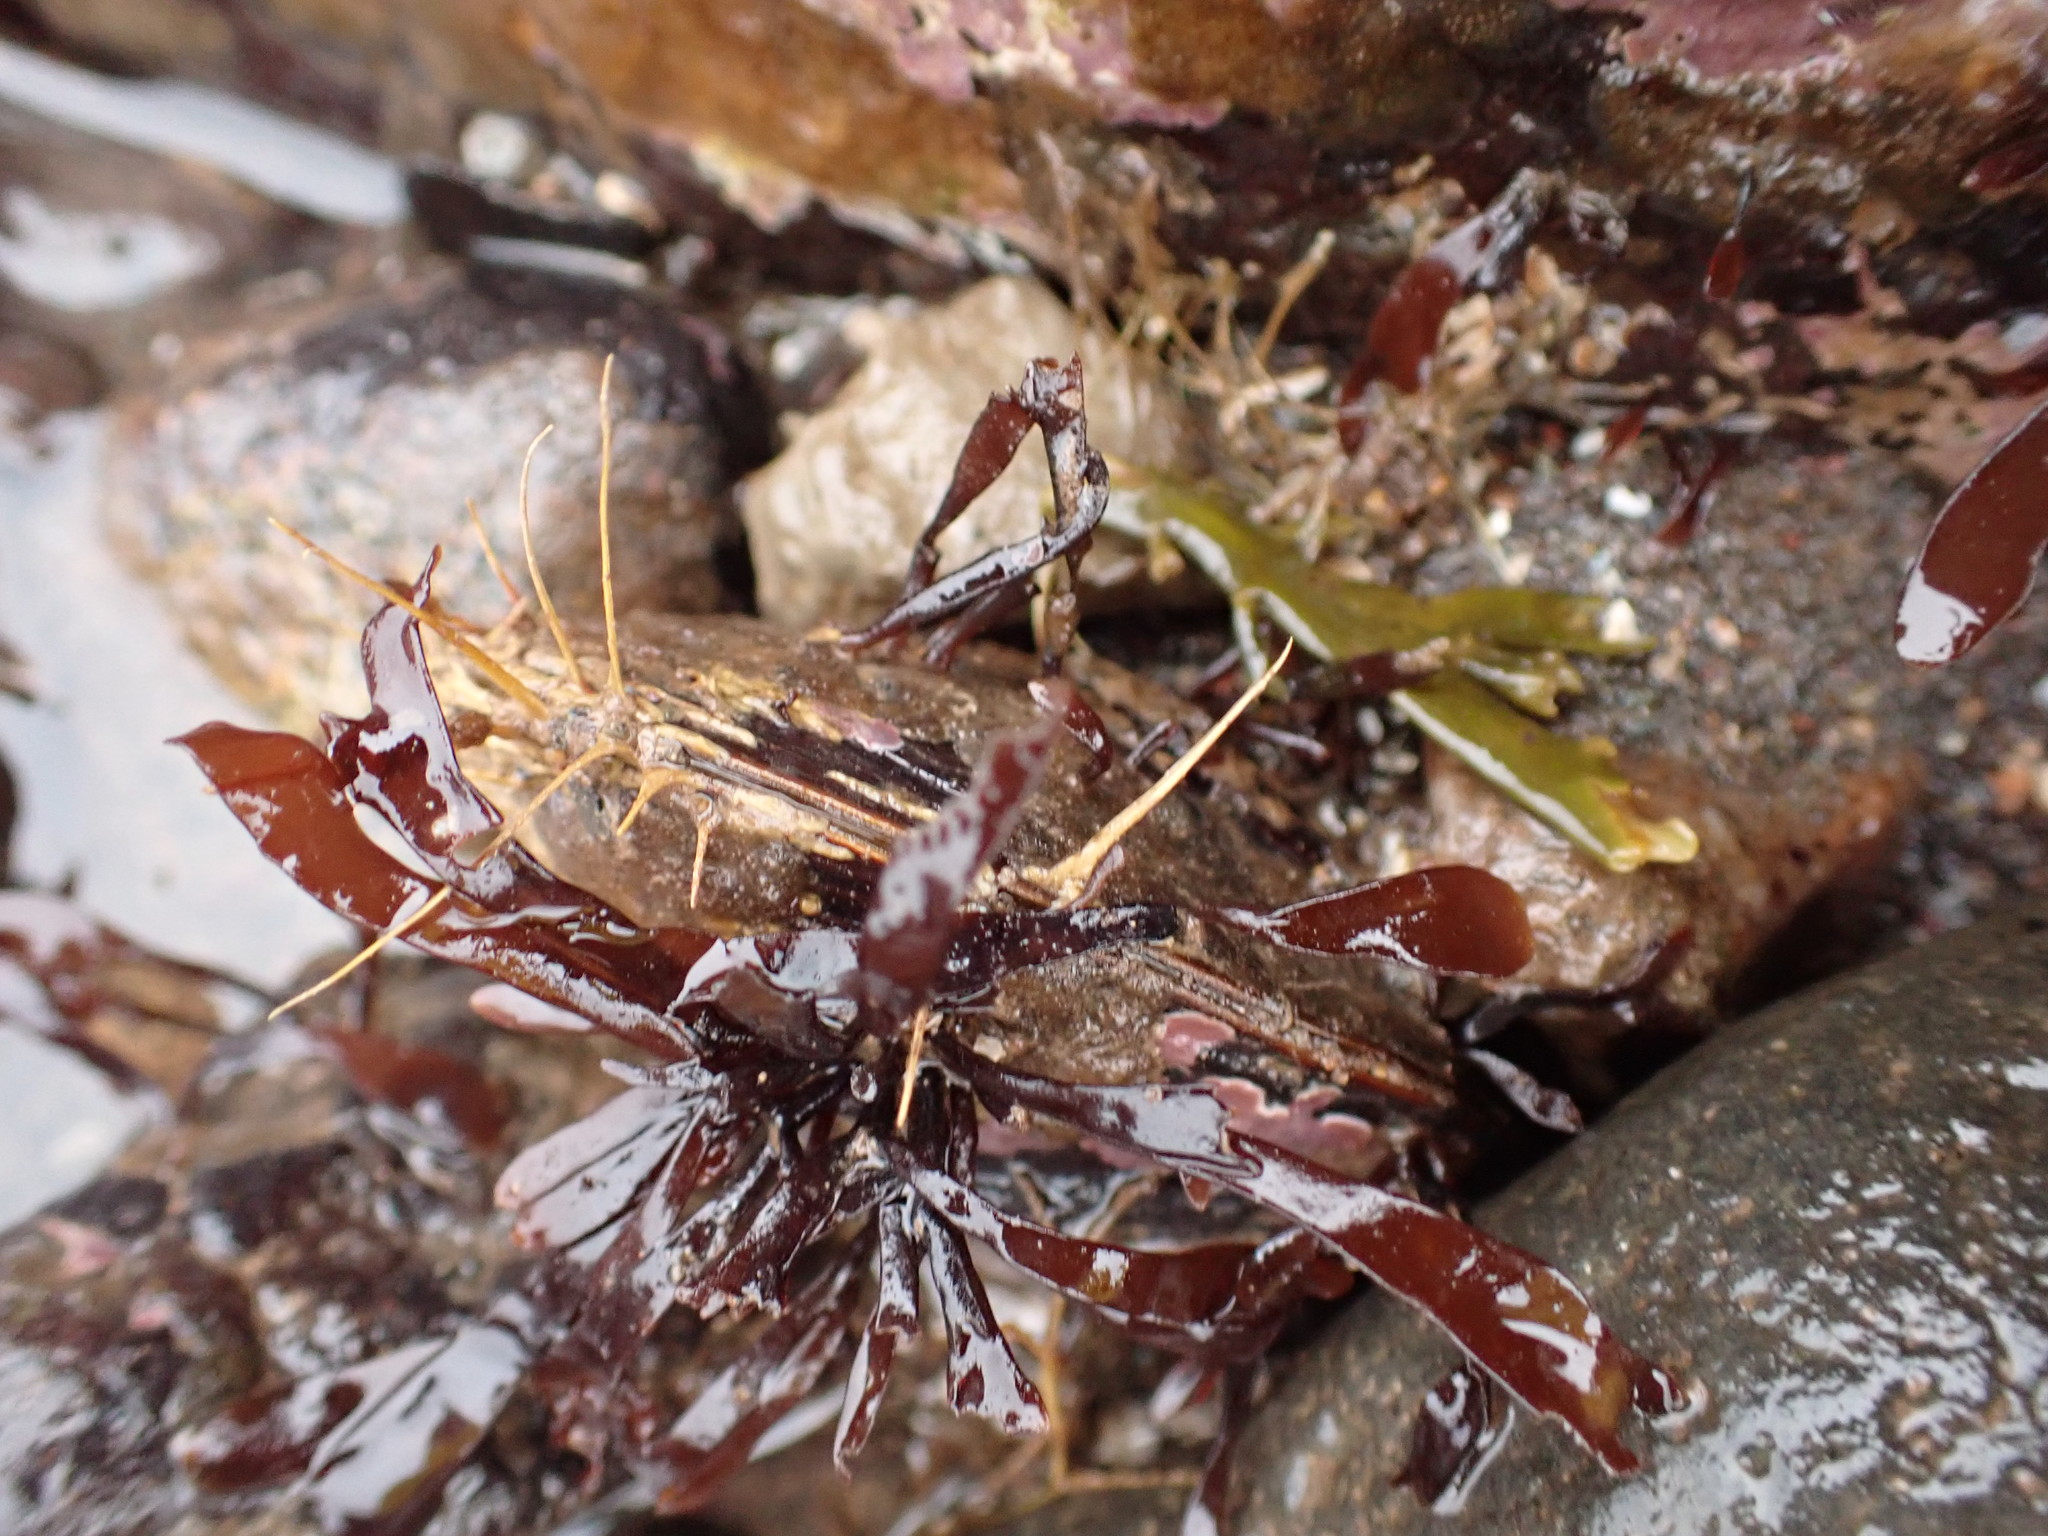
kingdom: Animalia
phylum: Mollusca
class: Bivalvia
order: Mytilida
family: Mytilidae
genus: Modiolus
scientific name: Modiolus modiolus
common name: Horse-mussel
